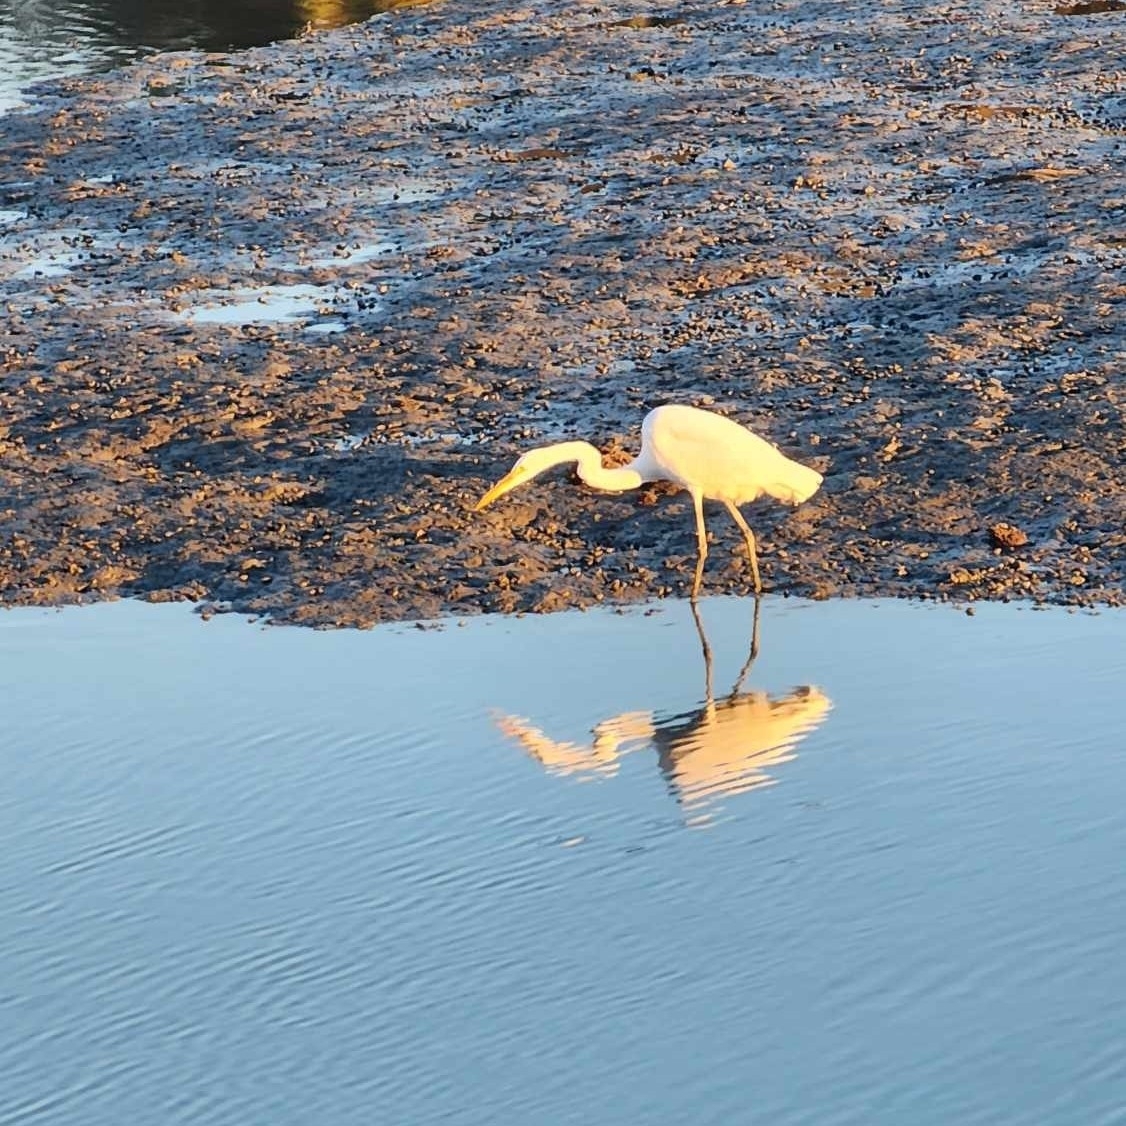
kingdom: Animalia
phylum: Chordata
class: Aves
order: Pelecaniformes
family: Ardeidae
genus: Ardea
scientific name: Ardea alba
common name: Great egret
